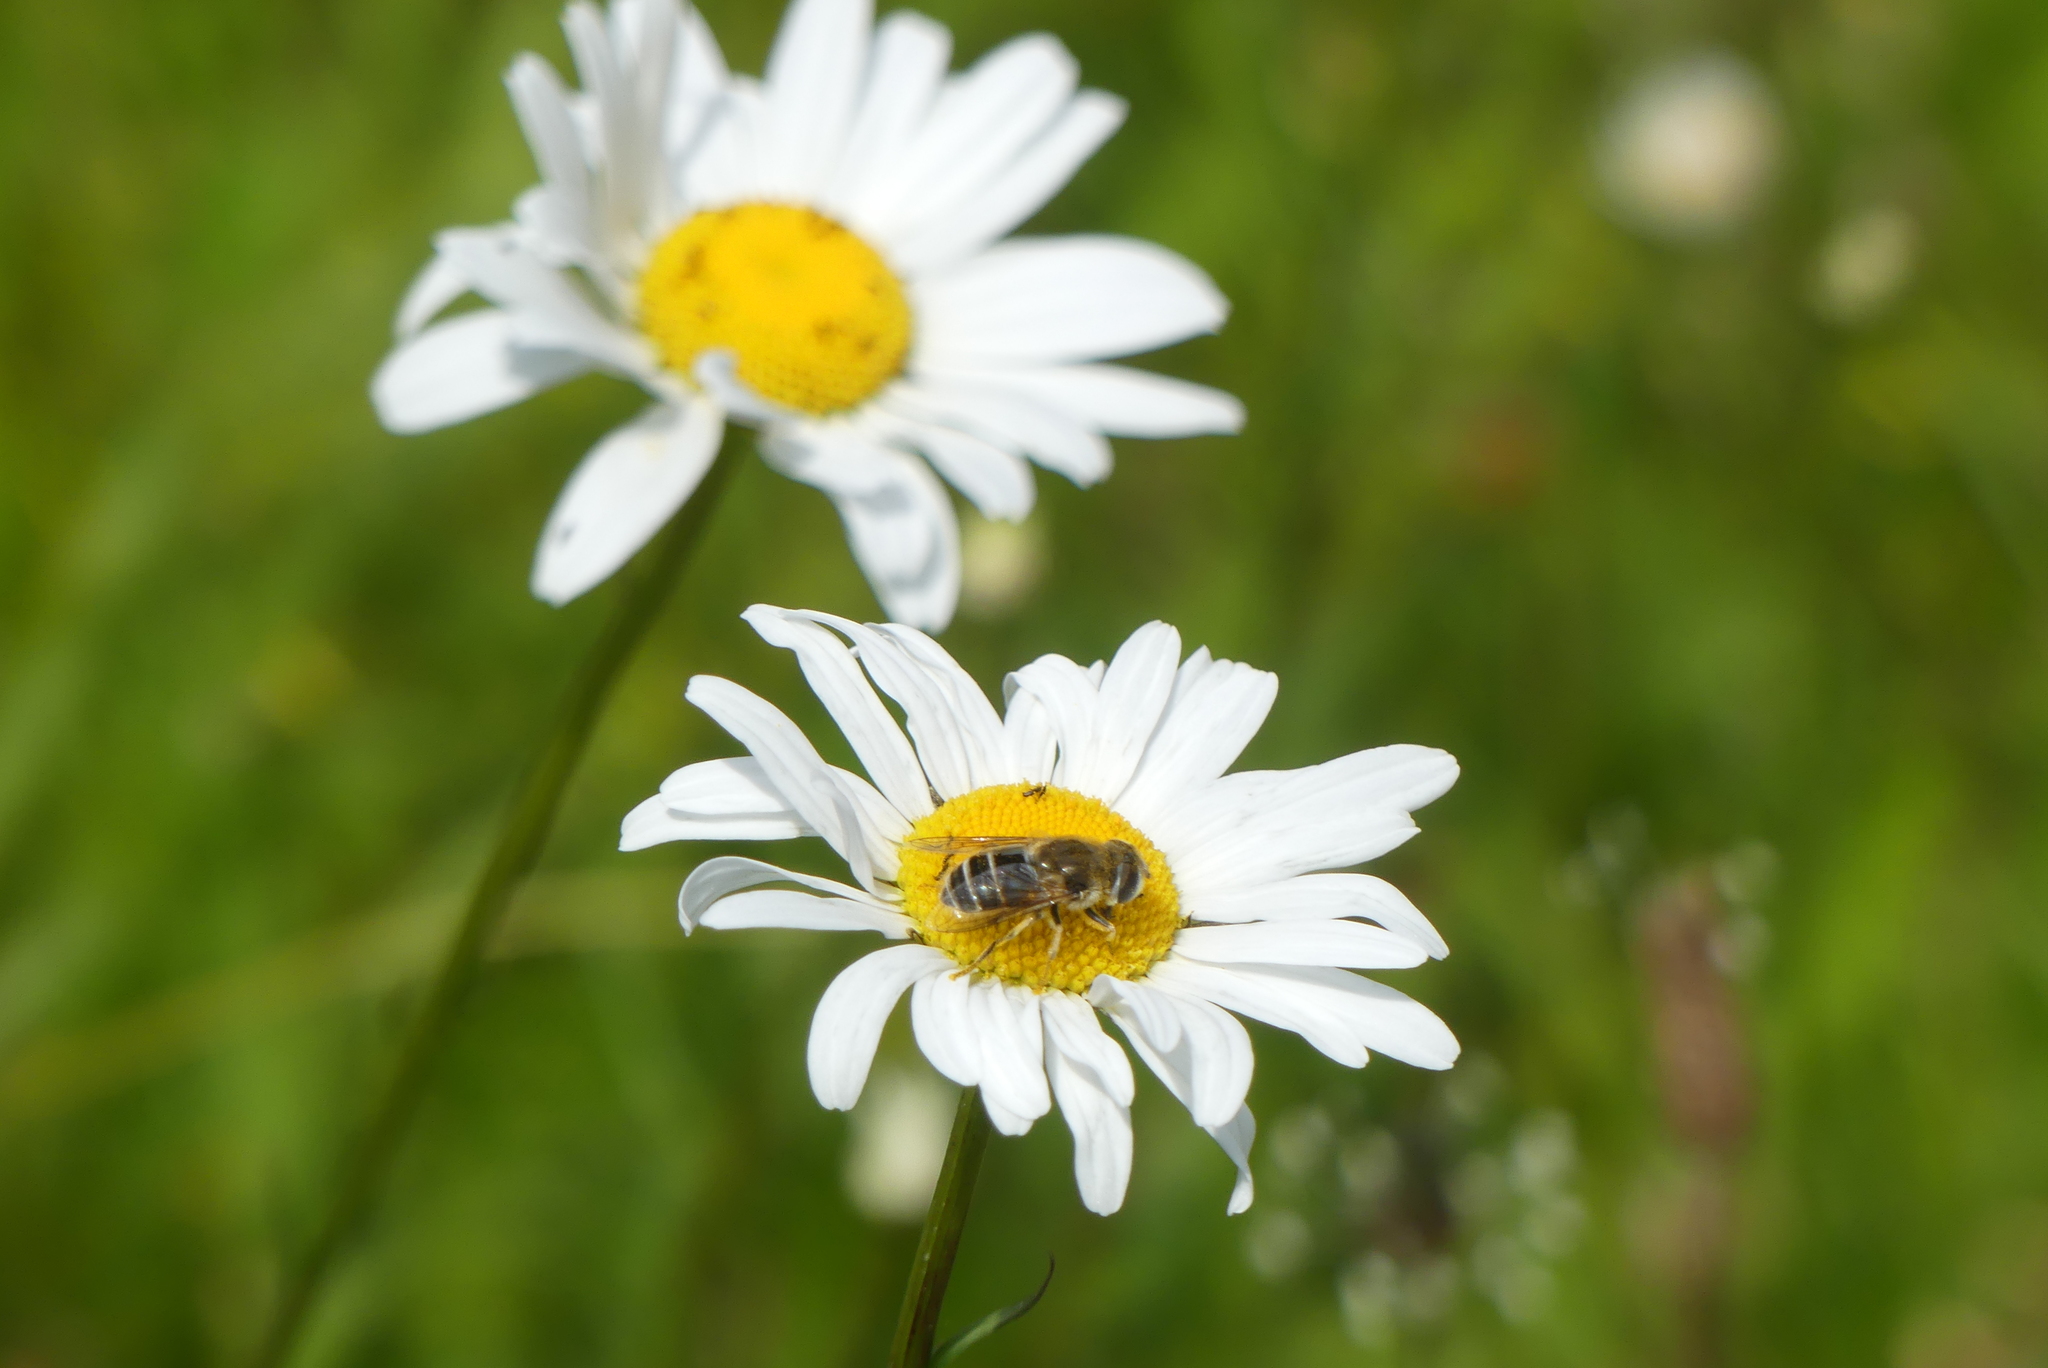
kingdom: Animalia
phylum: Arthropoda
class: Insecta
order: Diptera
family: Syrphidae
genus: Eristalis
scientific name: Eristalis arbustorum
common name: Hover fly
